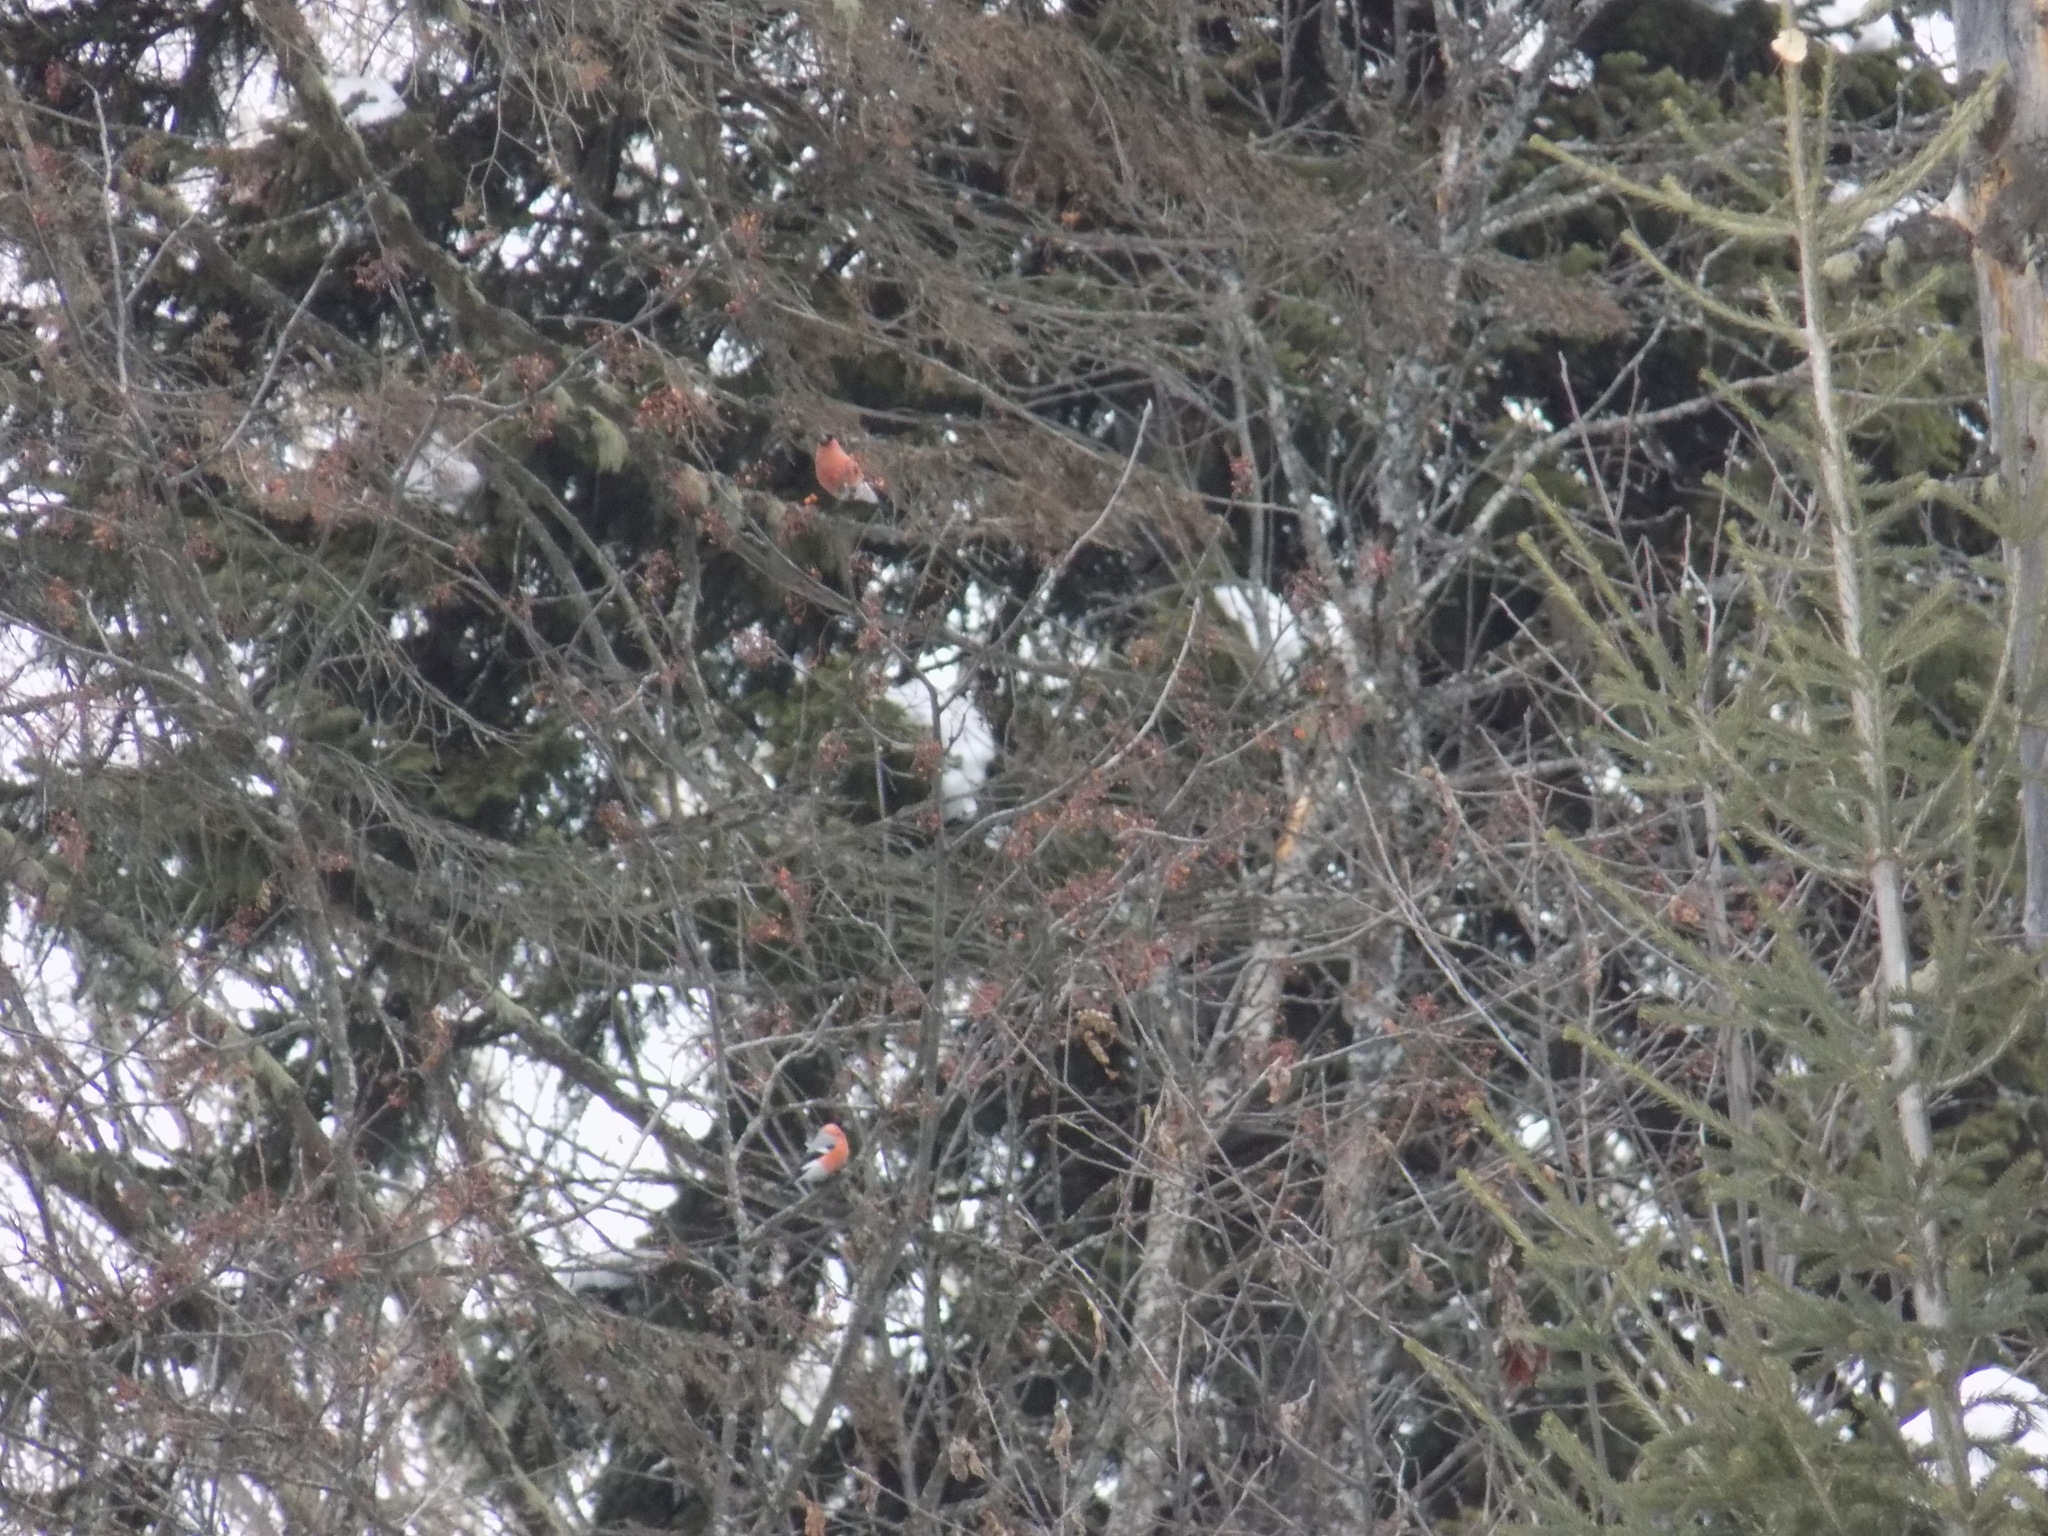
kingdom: Animalia
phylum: Chordata
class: Aves
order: Passeriformes
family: Fringillidae
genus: Pyrrhula
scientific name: Pyrrhula pyrrhula
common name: Eurasian bullfinch
